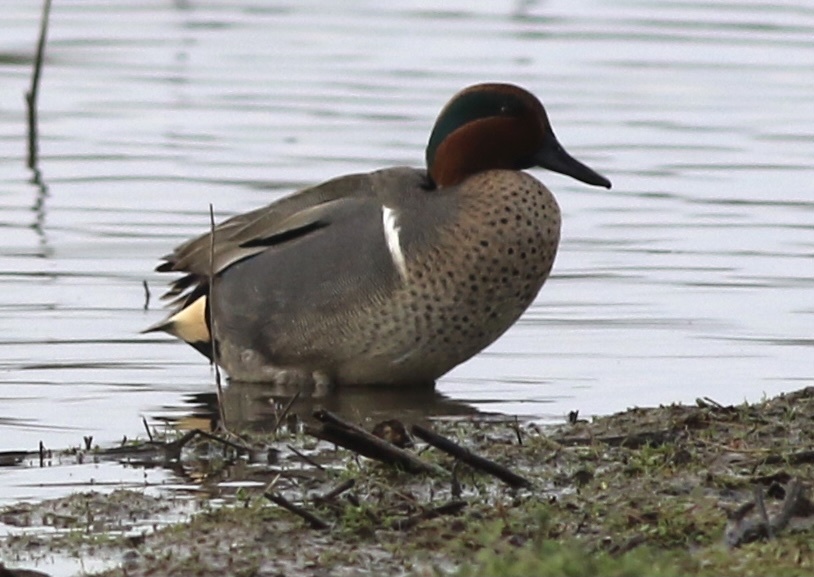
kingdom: Animalia
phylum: Chordata
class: Aves
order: Anseriformes
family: Anatidae
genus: Anas
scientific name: Anas crecca
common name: Eurasian teal
